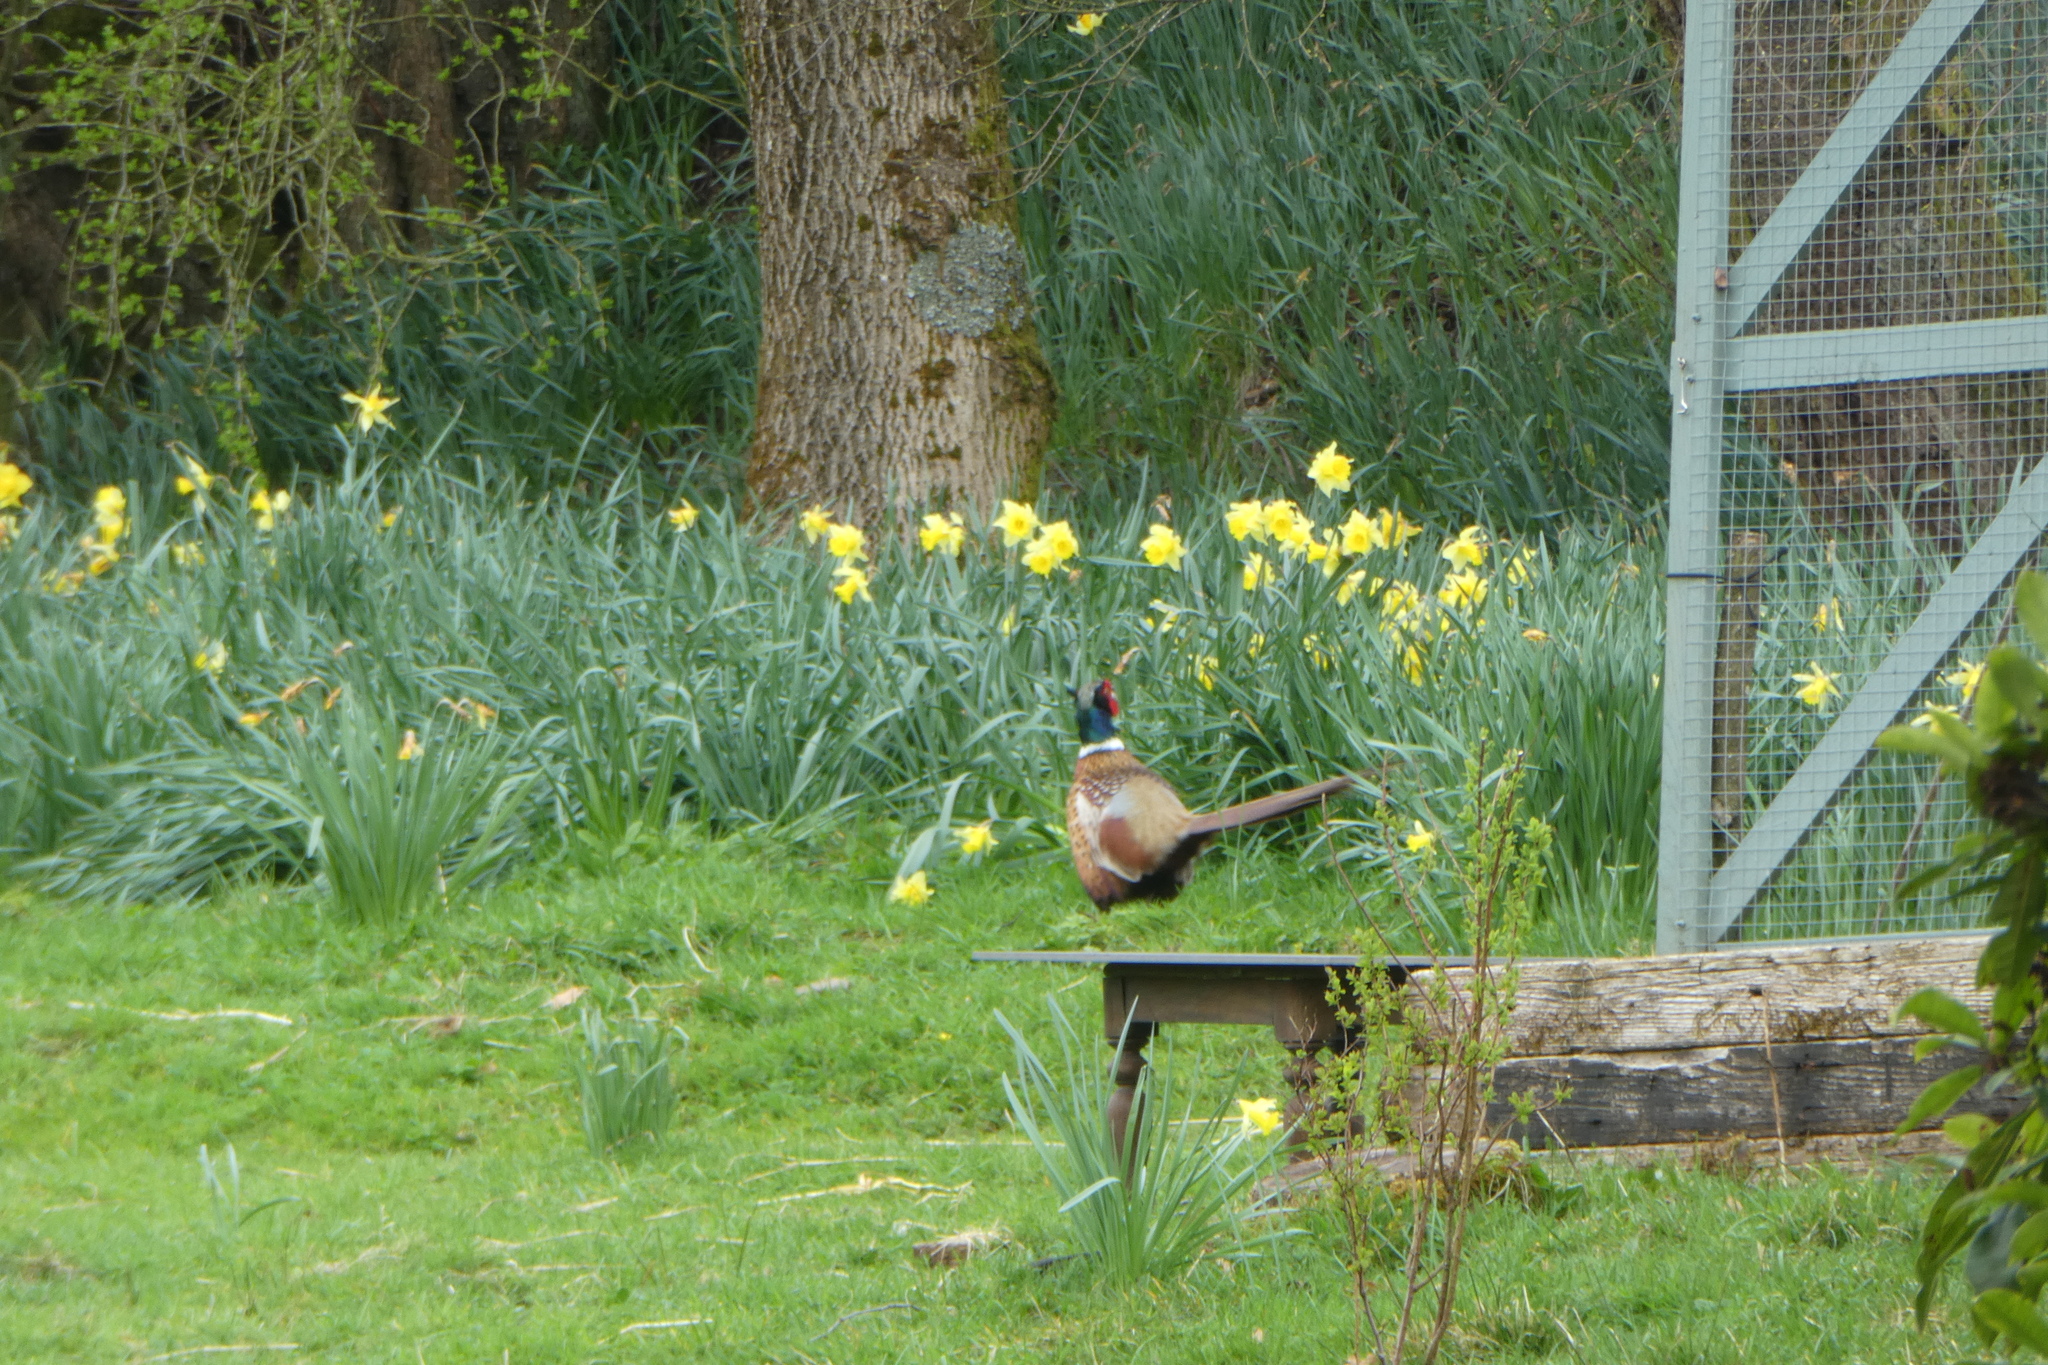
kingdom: Animalia
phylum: Chordata
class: Aves
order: Galliformes
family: Phasianidae
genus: Phasianus
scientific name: Phasianus colchicus
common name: Common pheasant
